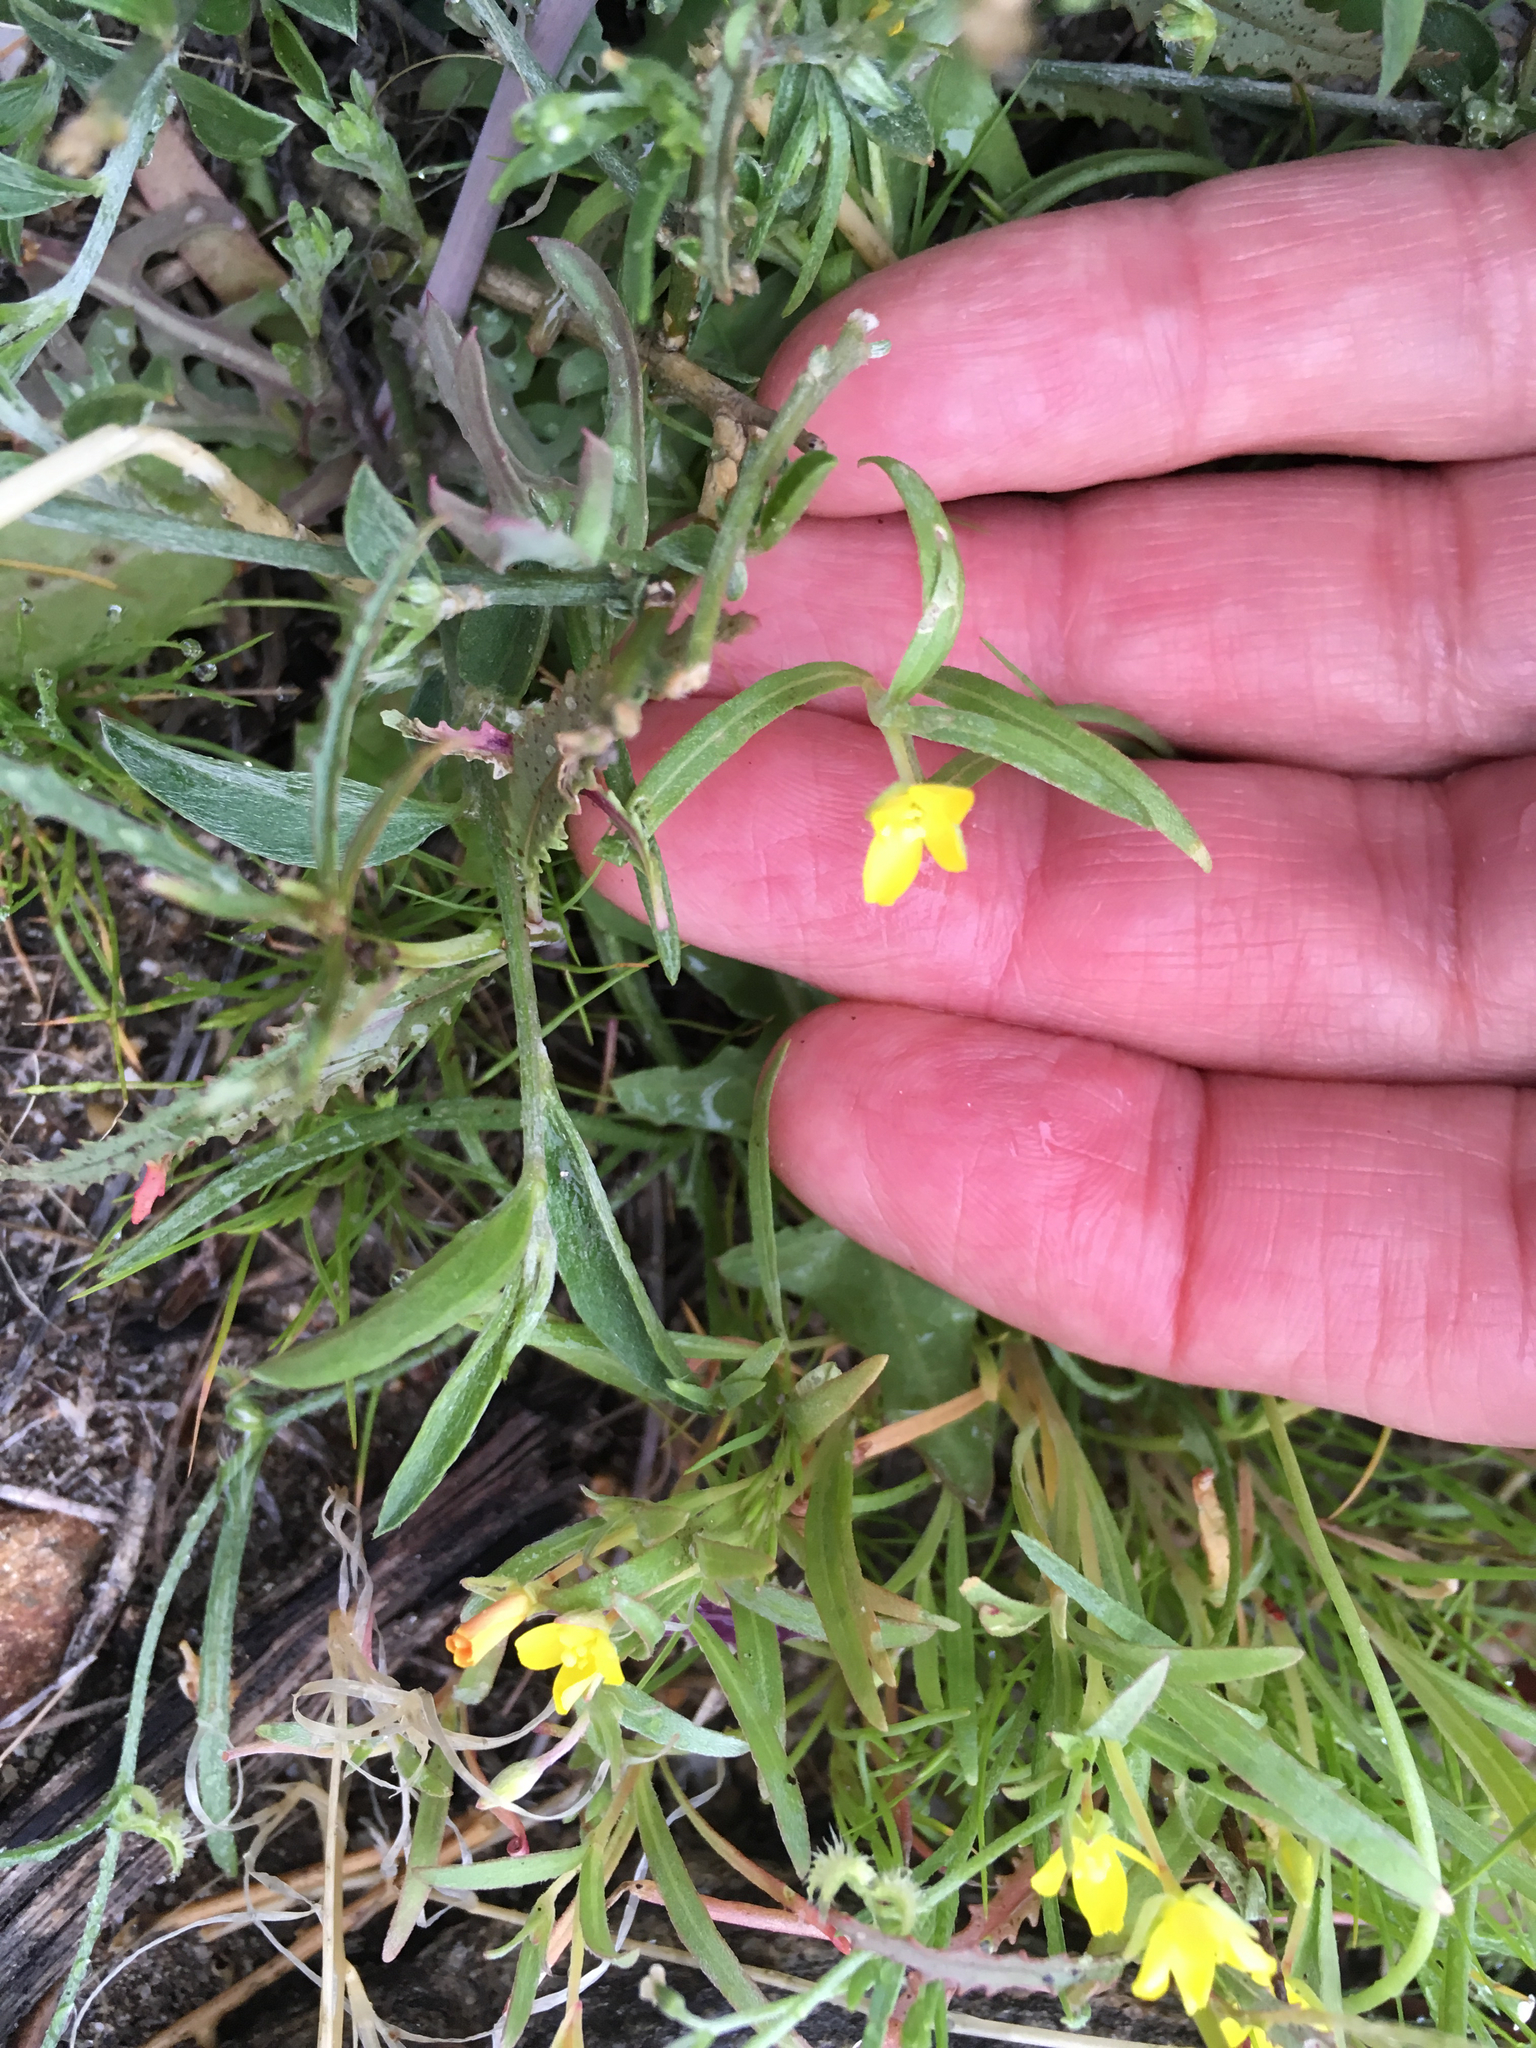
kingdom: Plantae
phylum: Tracheophyta
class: Magnoliopsida
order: Myrtales
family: Onagraceae
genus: Camissoniopsis
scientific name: Camissoniopsis pallida
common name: Paleyellow suncup
